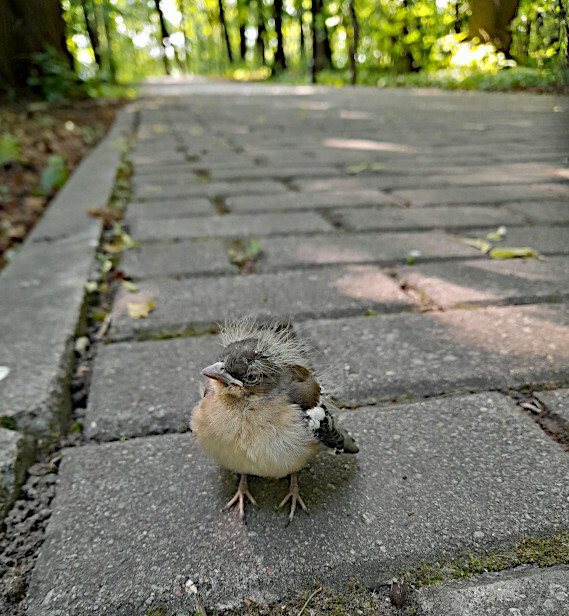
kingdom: Animalia
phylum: Chordata
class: Aves
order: Passeriformes
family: Fringillidae
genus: Fringilla
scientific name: Fringilla coelebs
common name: Common chaffinch
